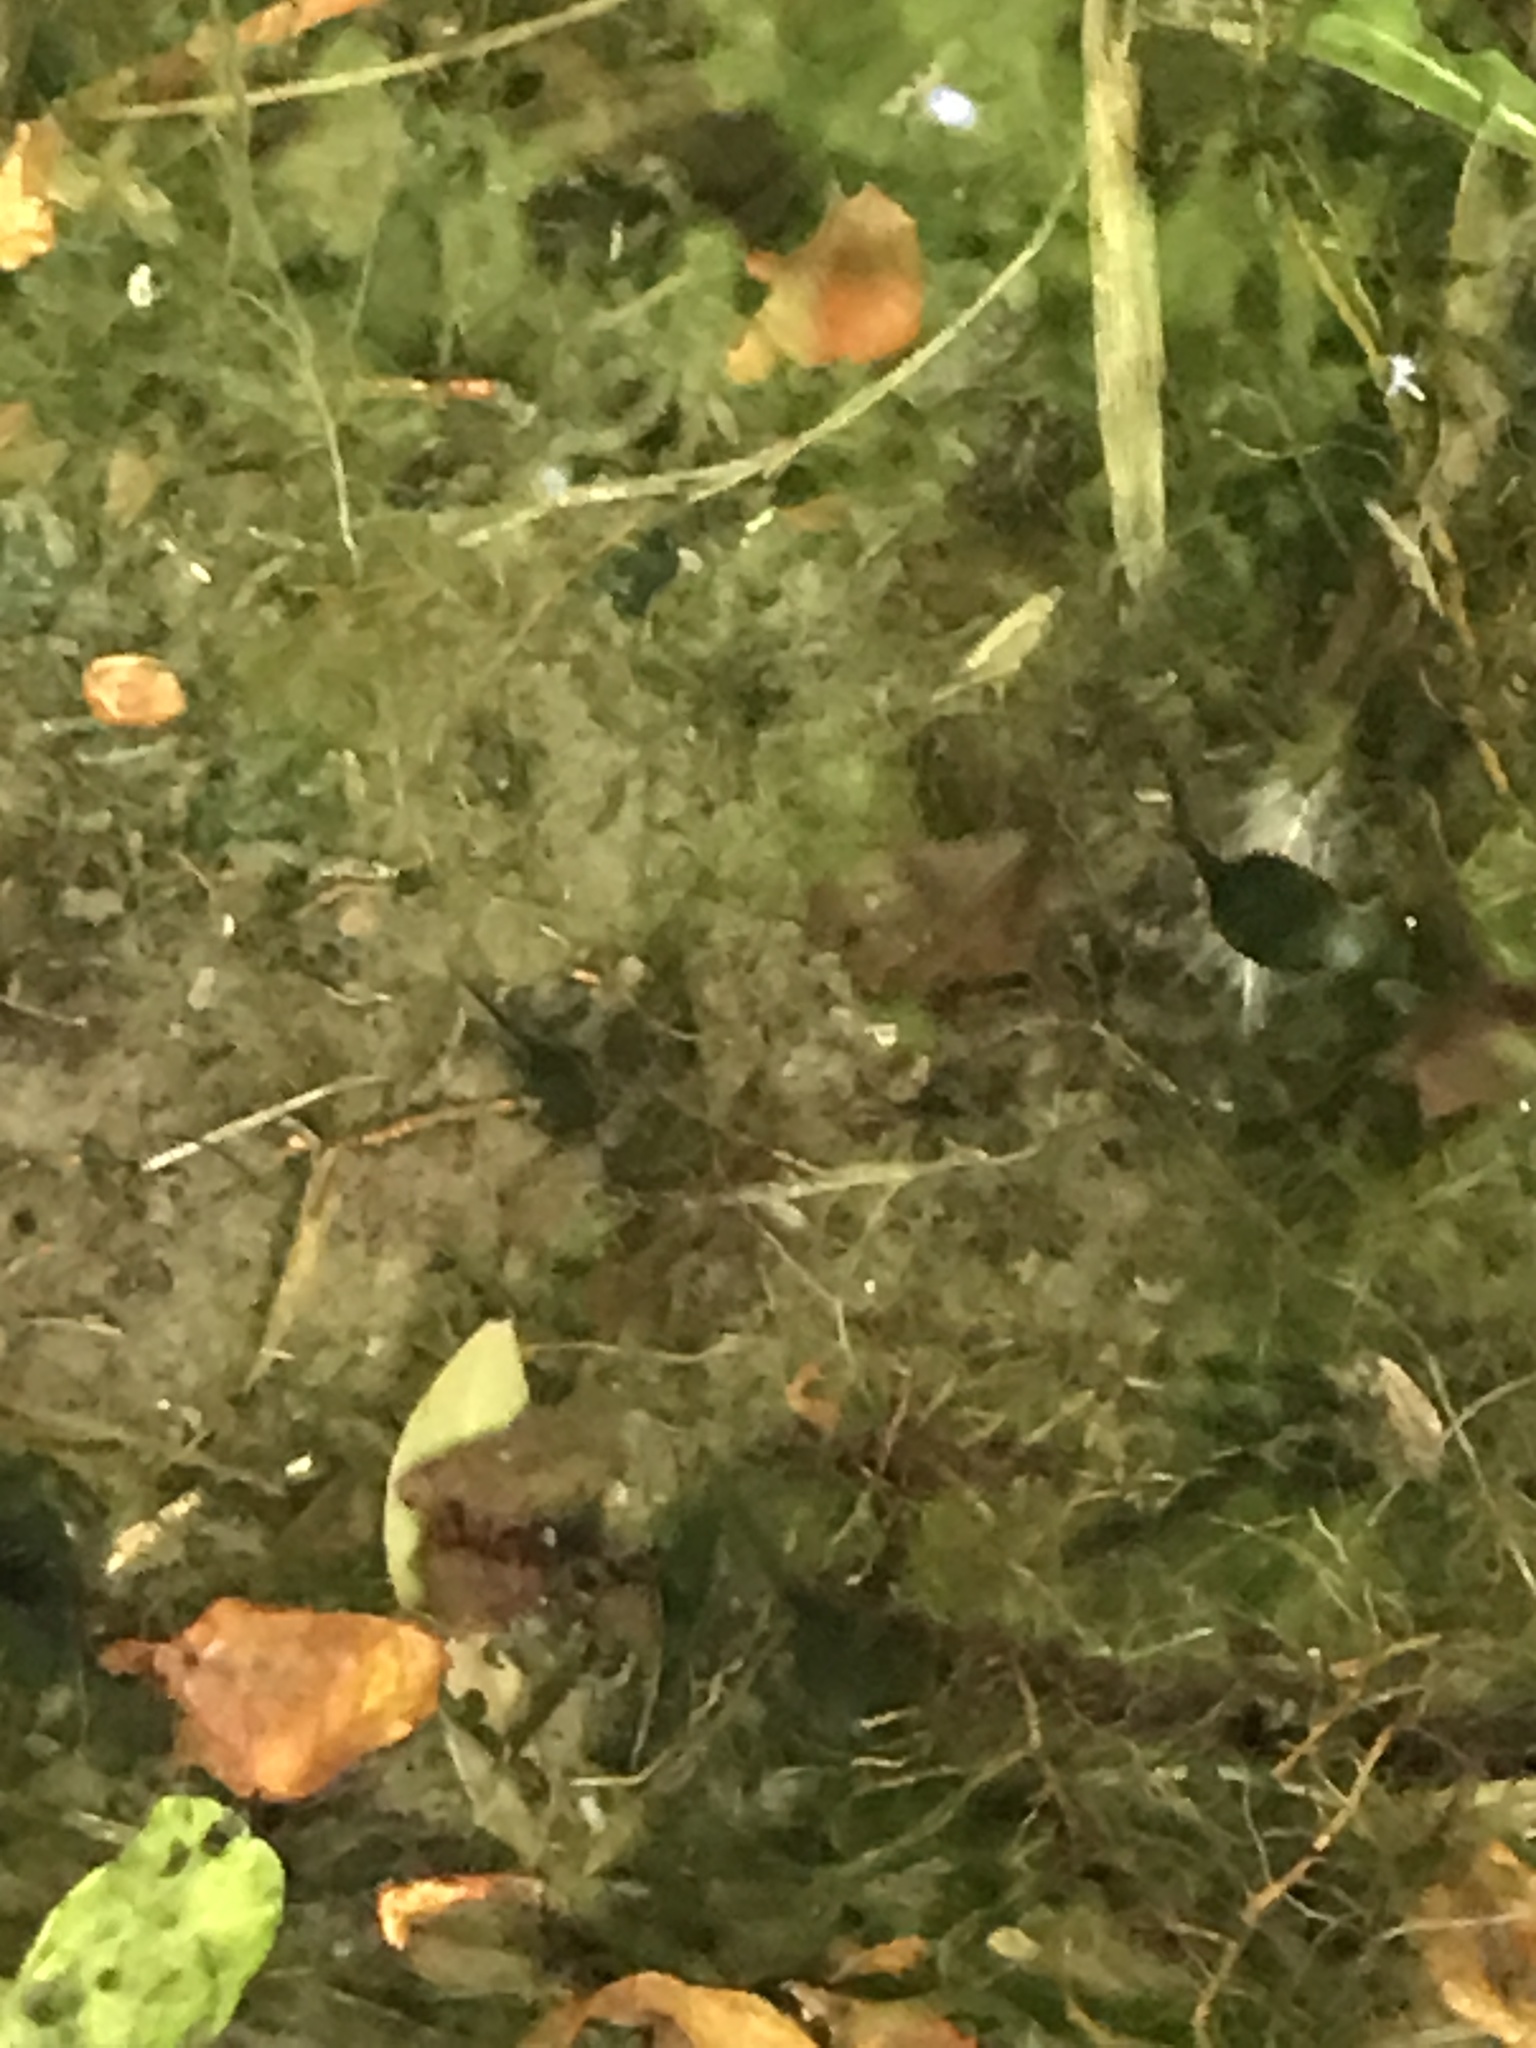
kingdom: Animalia
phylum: Chordata
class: Amphibia
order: Anura
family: Bufonidae
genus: Bufo
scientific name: Bufo bufo
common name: Common toad
